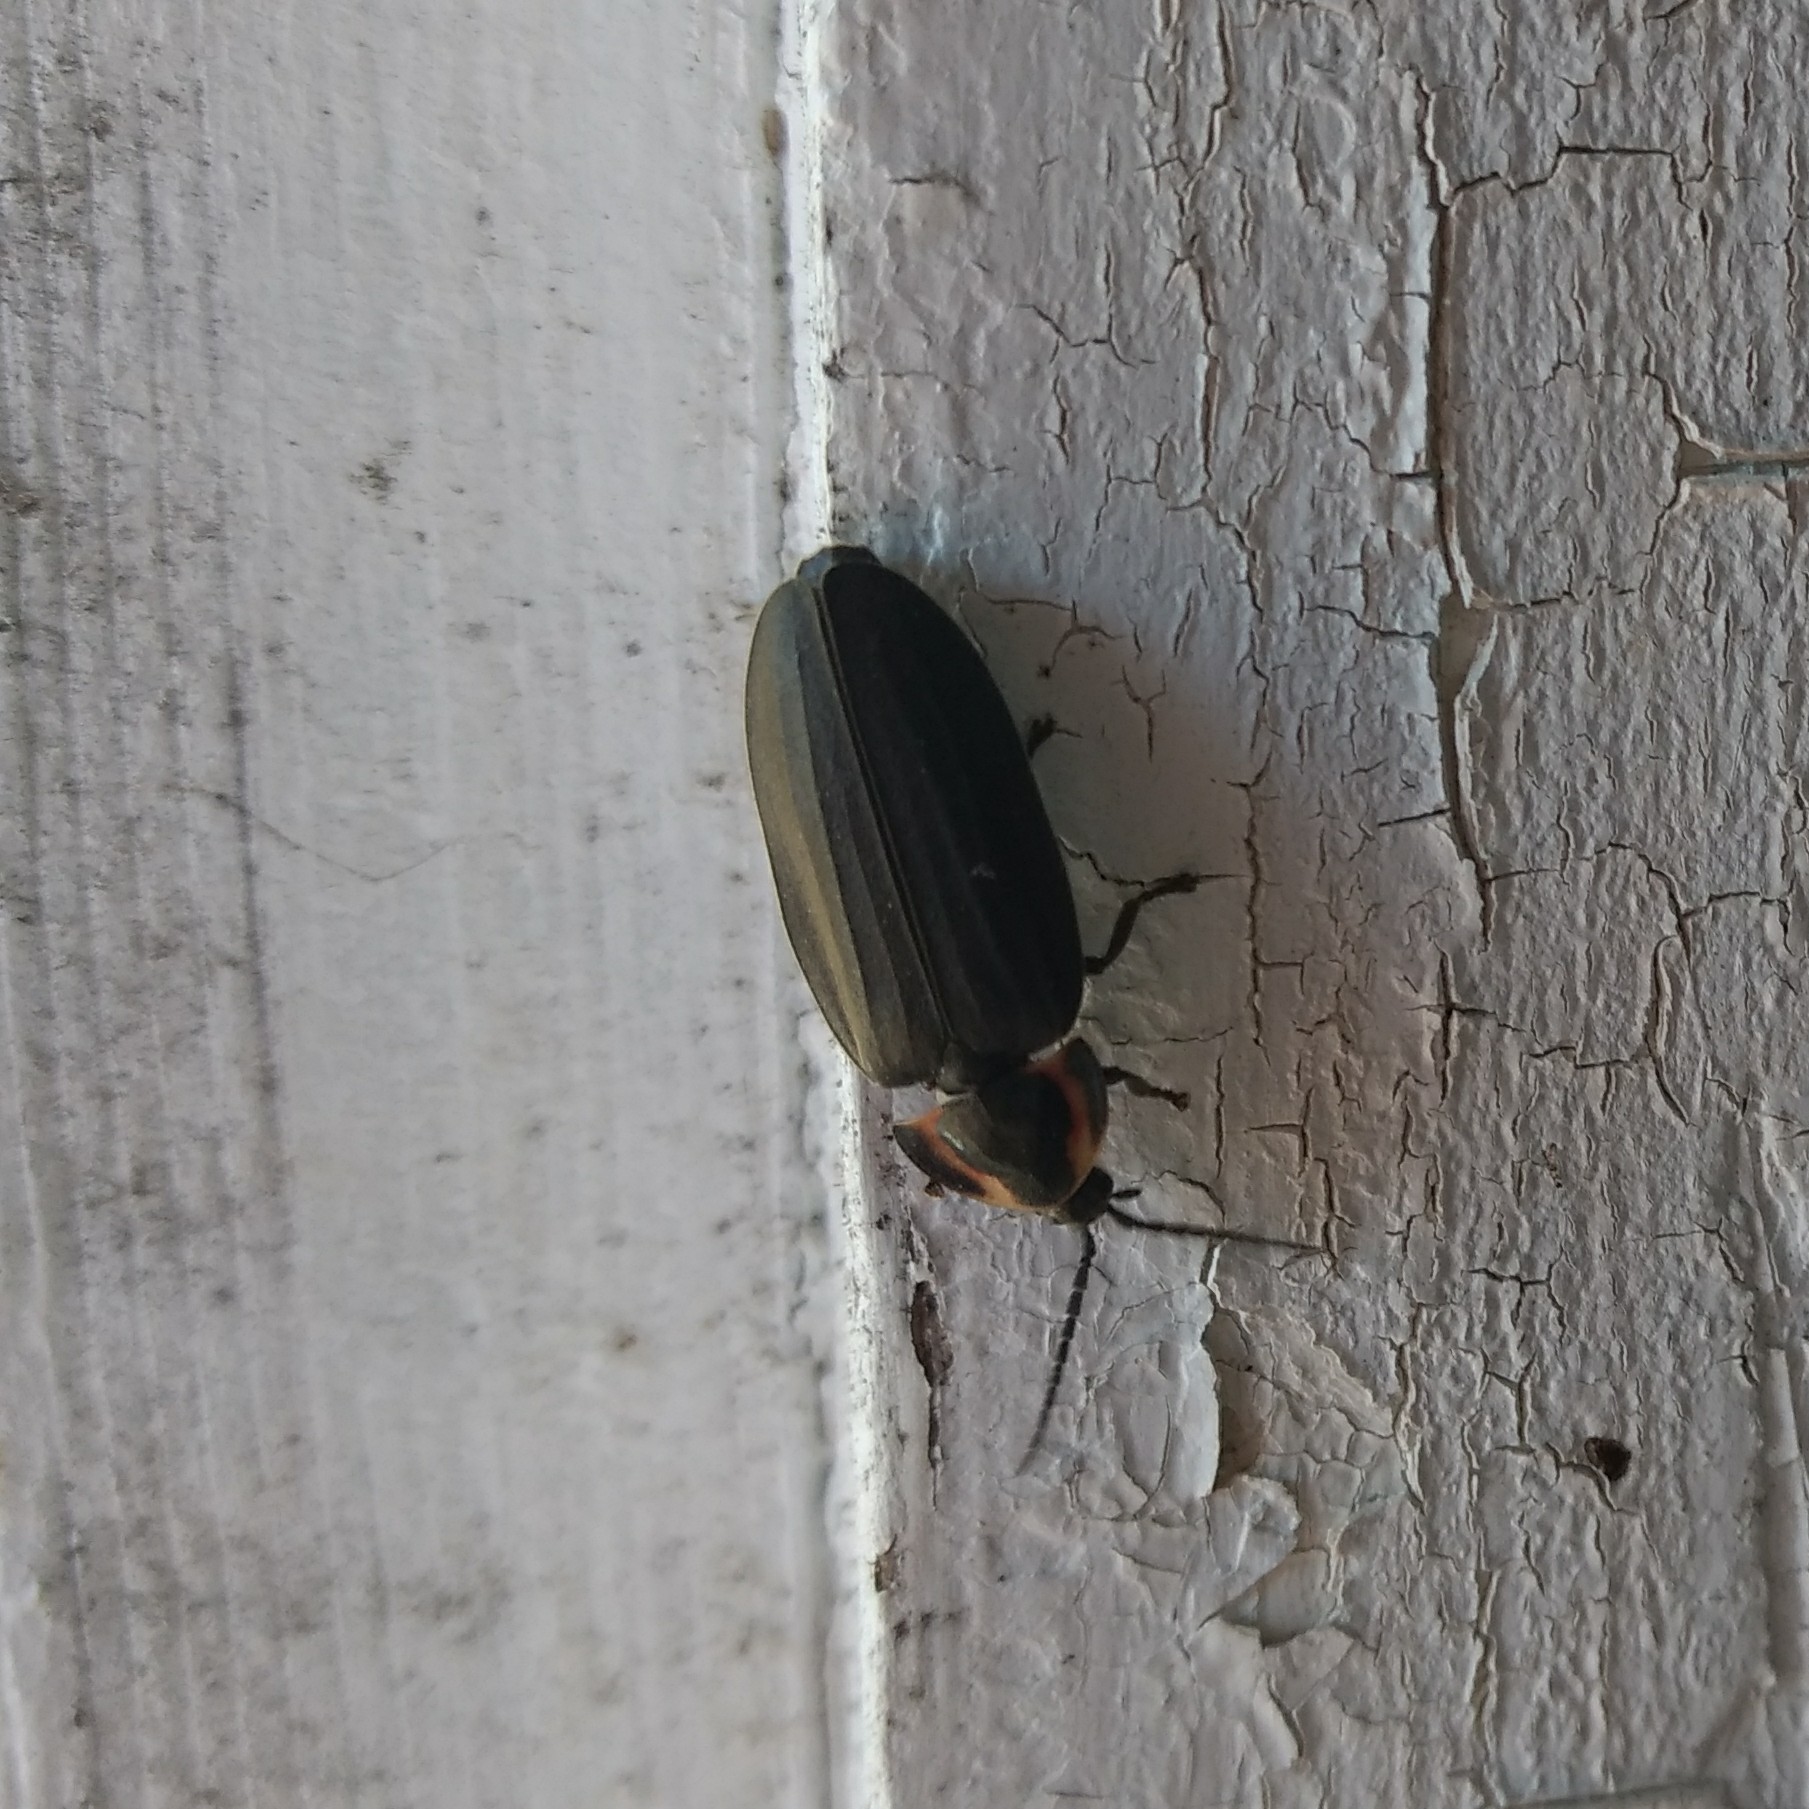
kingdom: Animalia
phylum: Arthropoda
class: Insecta
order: Coleoptera
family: Lampyridae
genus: Photinus
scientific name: Photinus corrusca
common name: Winter firefly
